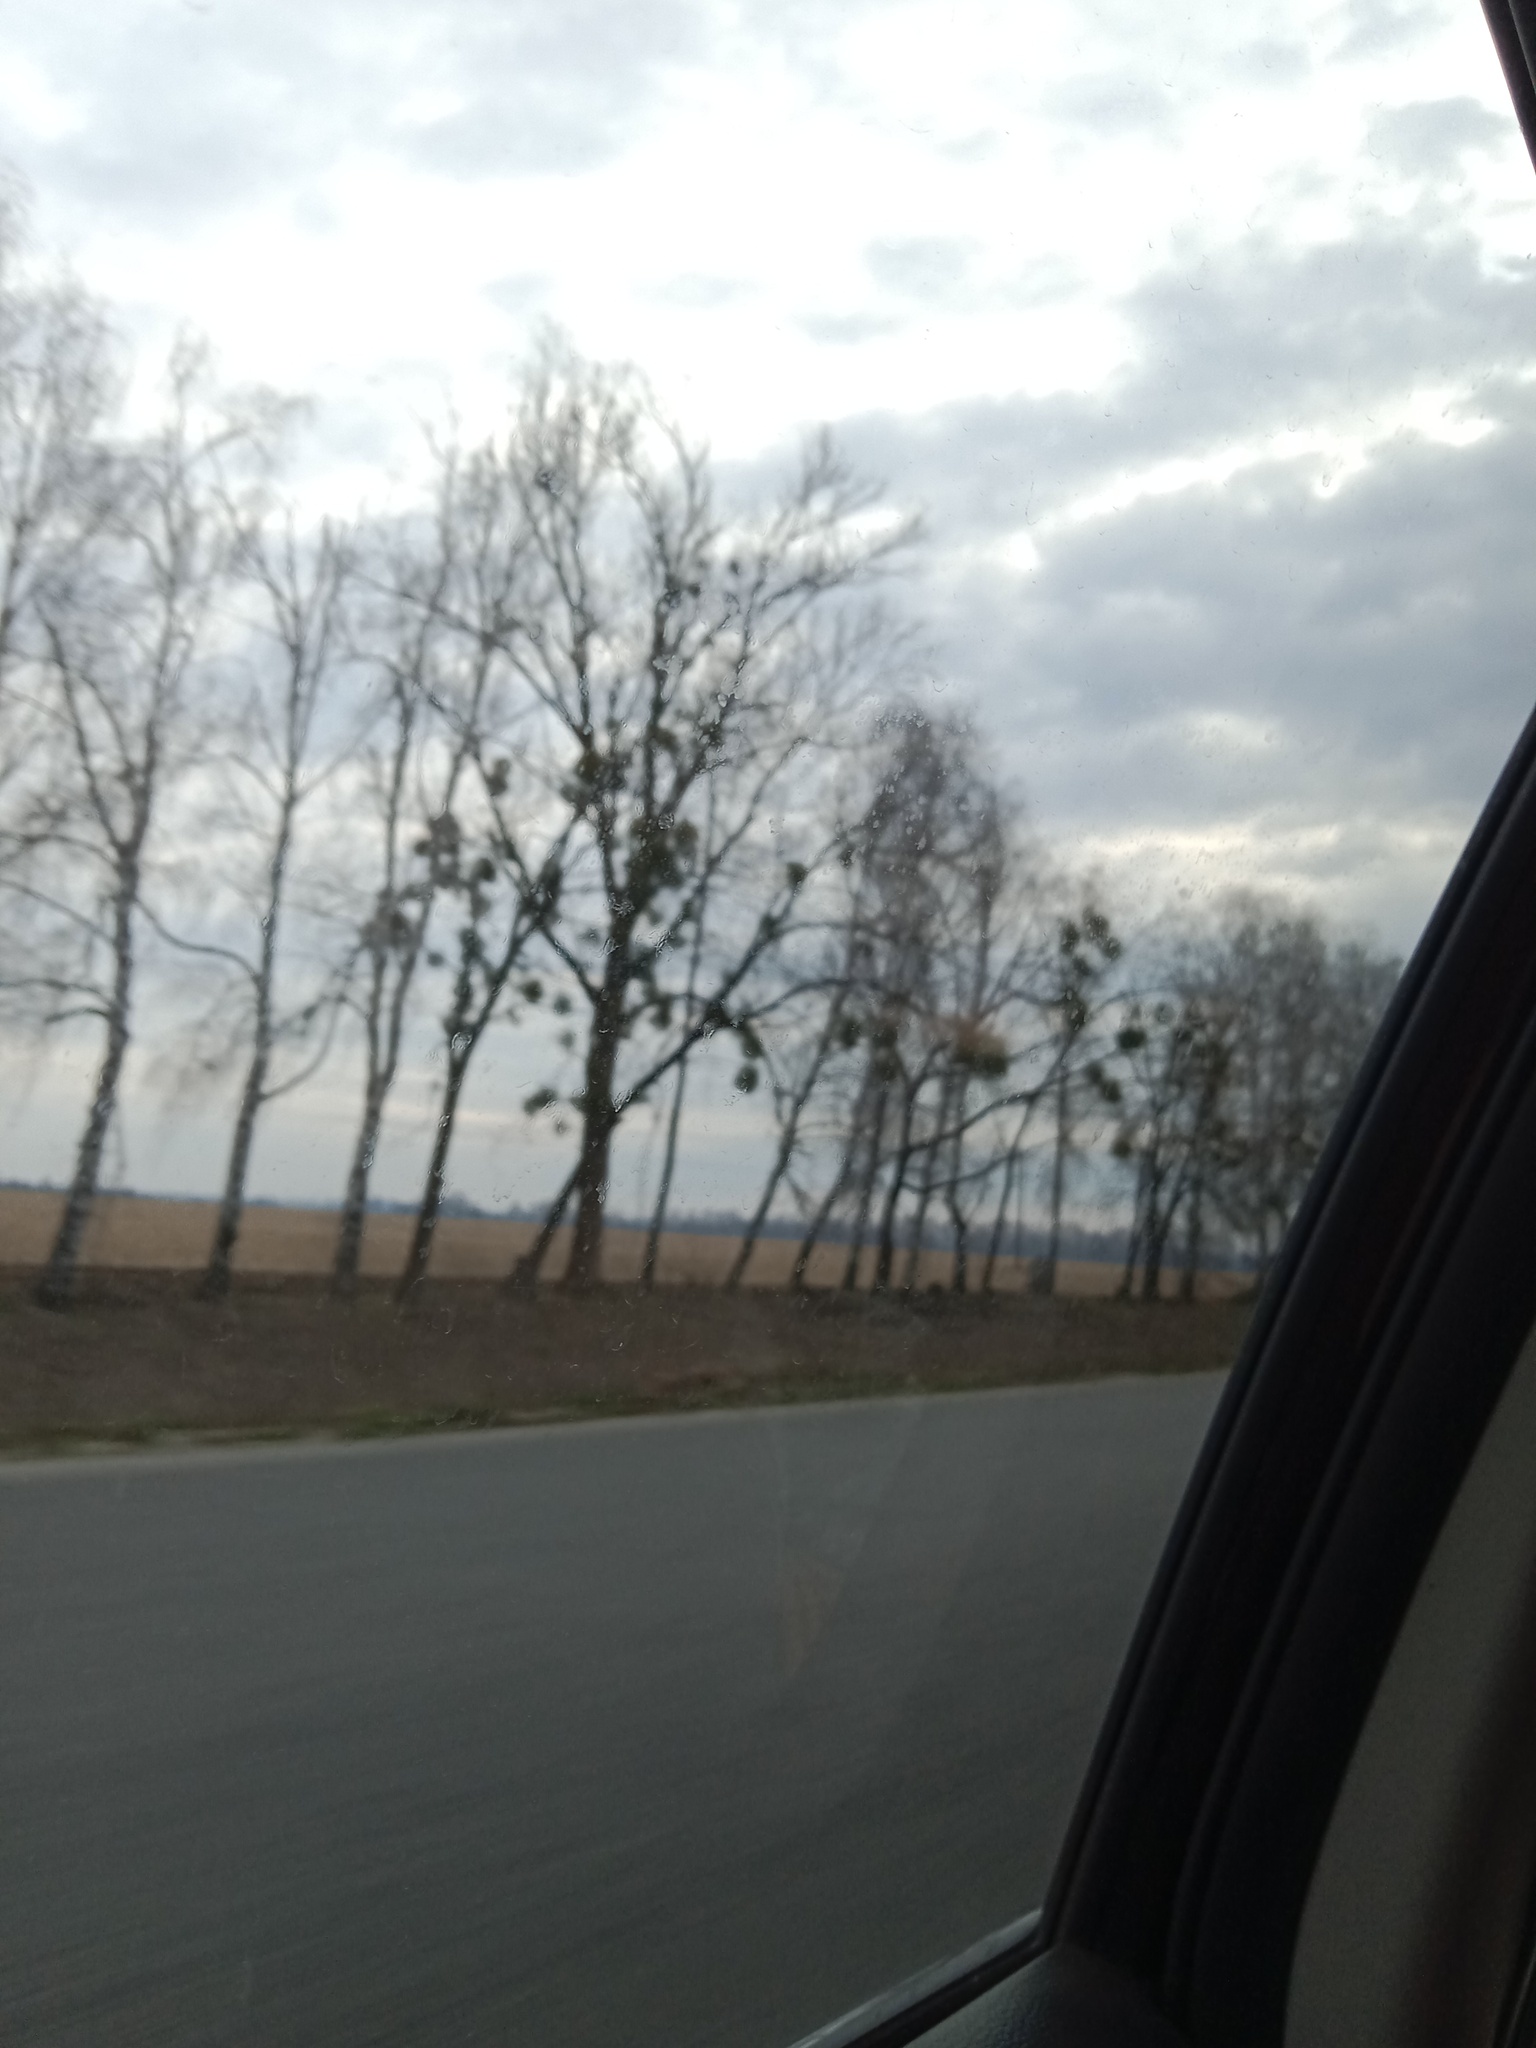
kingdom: Plantae
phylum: Tracheophyta
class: Magnoliopsida
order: Santalales
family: Viscaceae
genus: Viscum
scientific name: Viscum album
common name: Mistletoe
